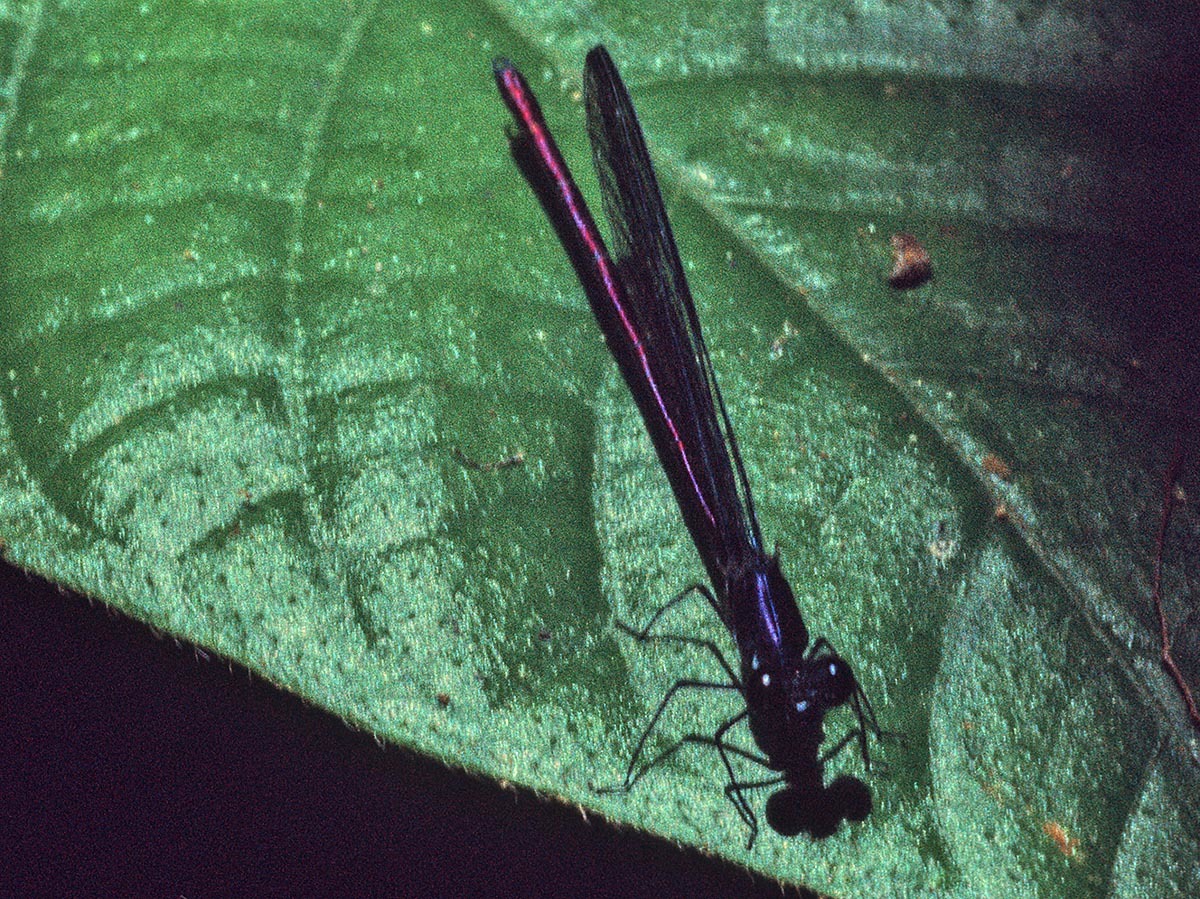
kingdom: Animalia
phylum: Arthropoda
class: Insecta
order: Odonata
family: Calopterygidae
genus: Mnesarete
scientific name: Mnesarete aenea
